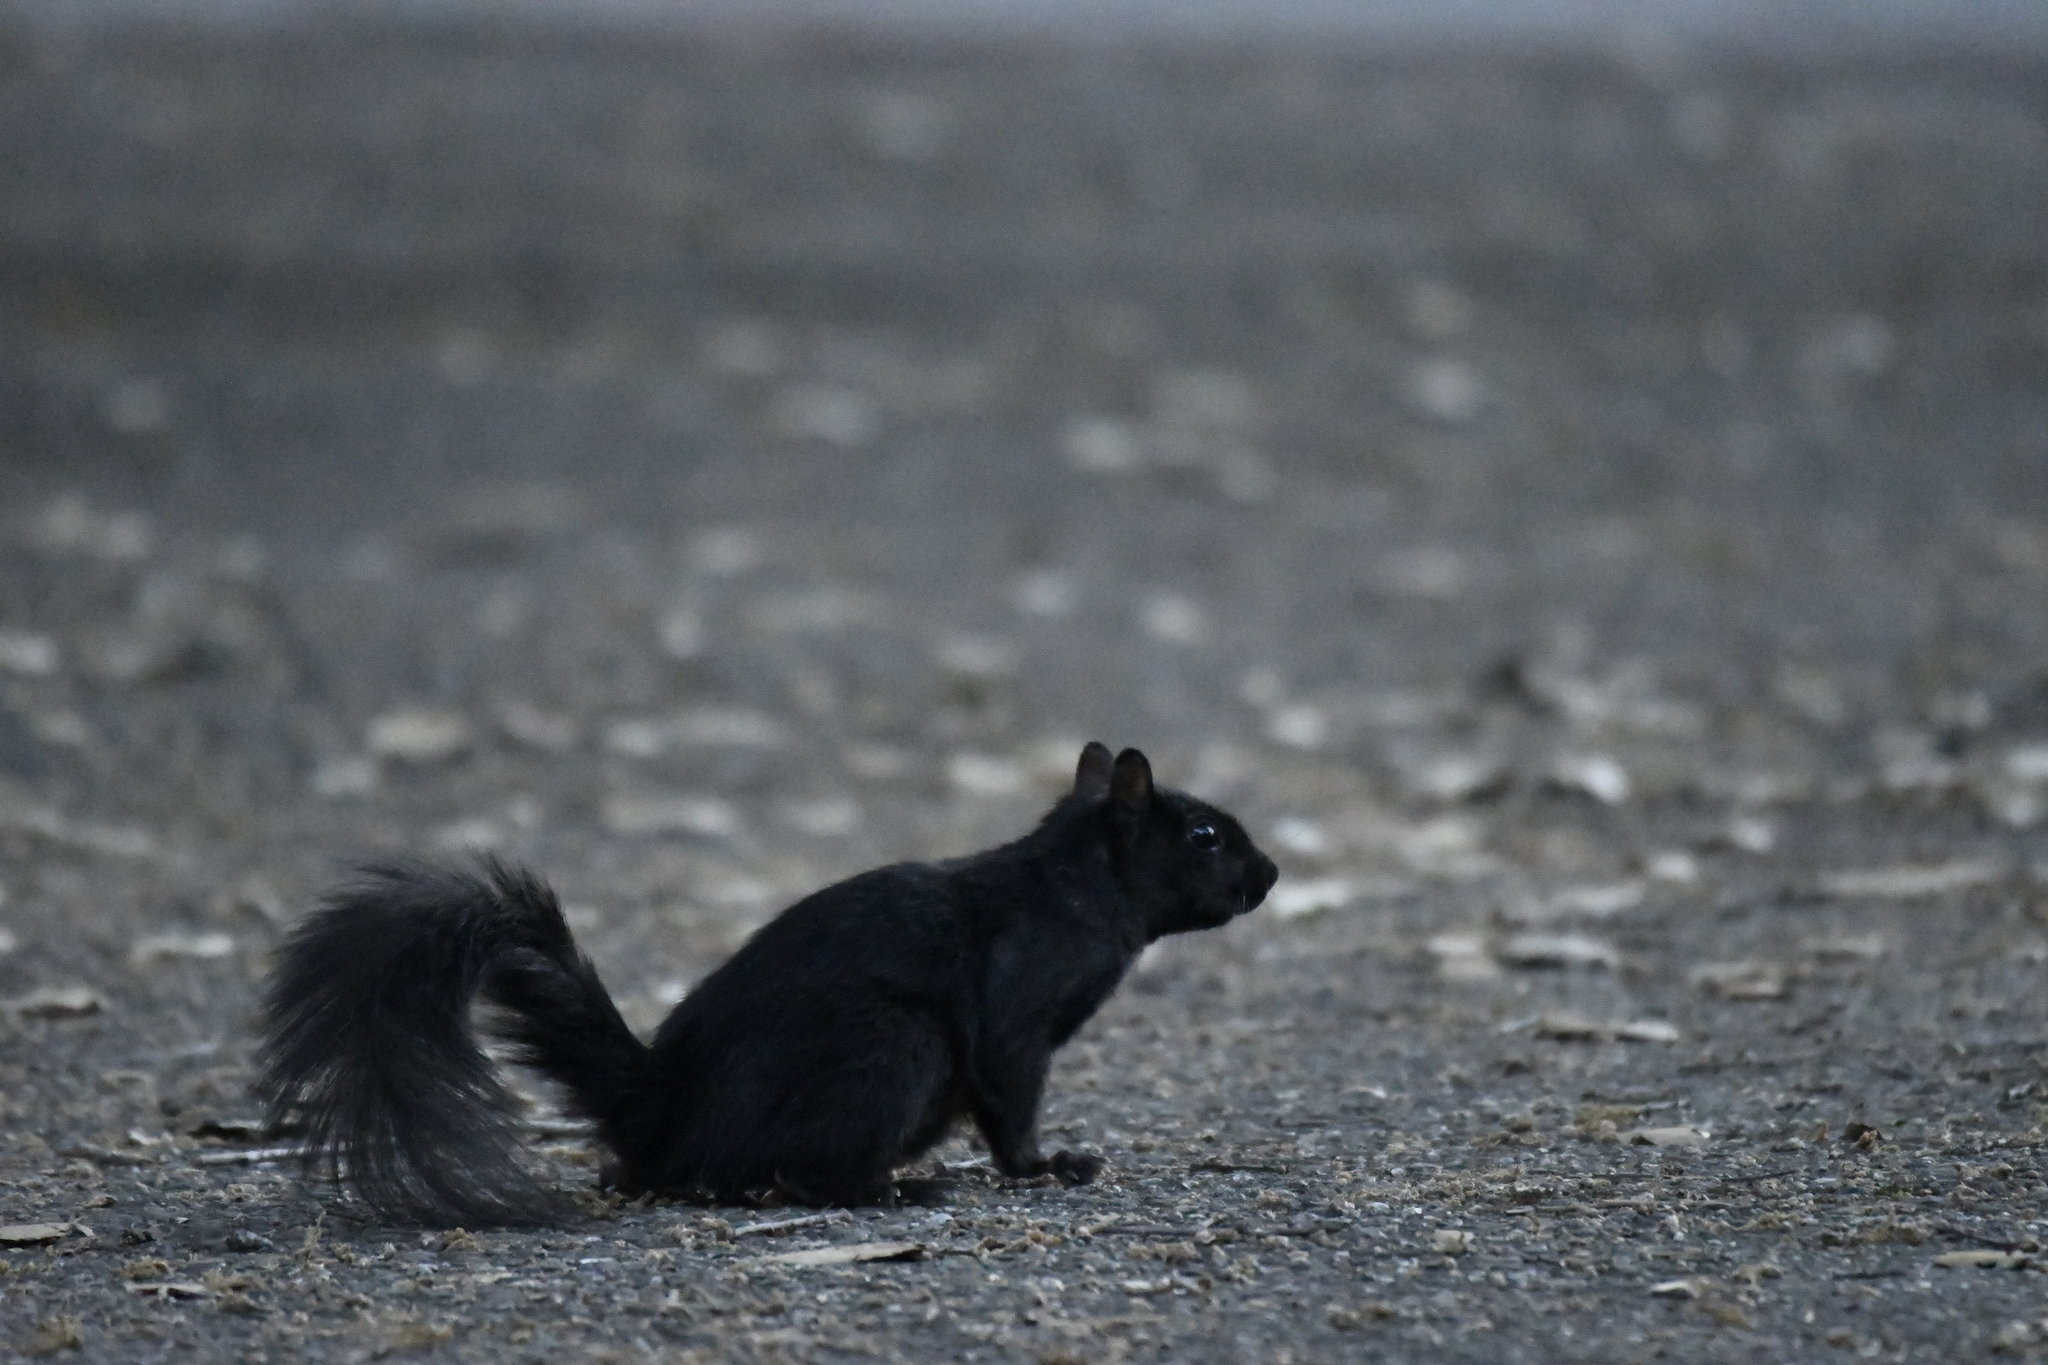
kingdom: Animalia
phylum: Chordata
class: Mammalia
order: Rodentia
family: Sciuridae
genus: Sciurus
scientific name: Sciurus carolinensis
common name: Eastern gray squirrel
